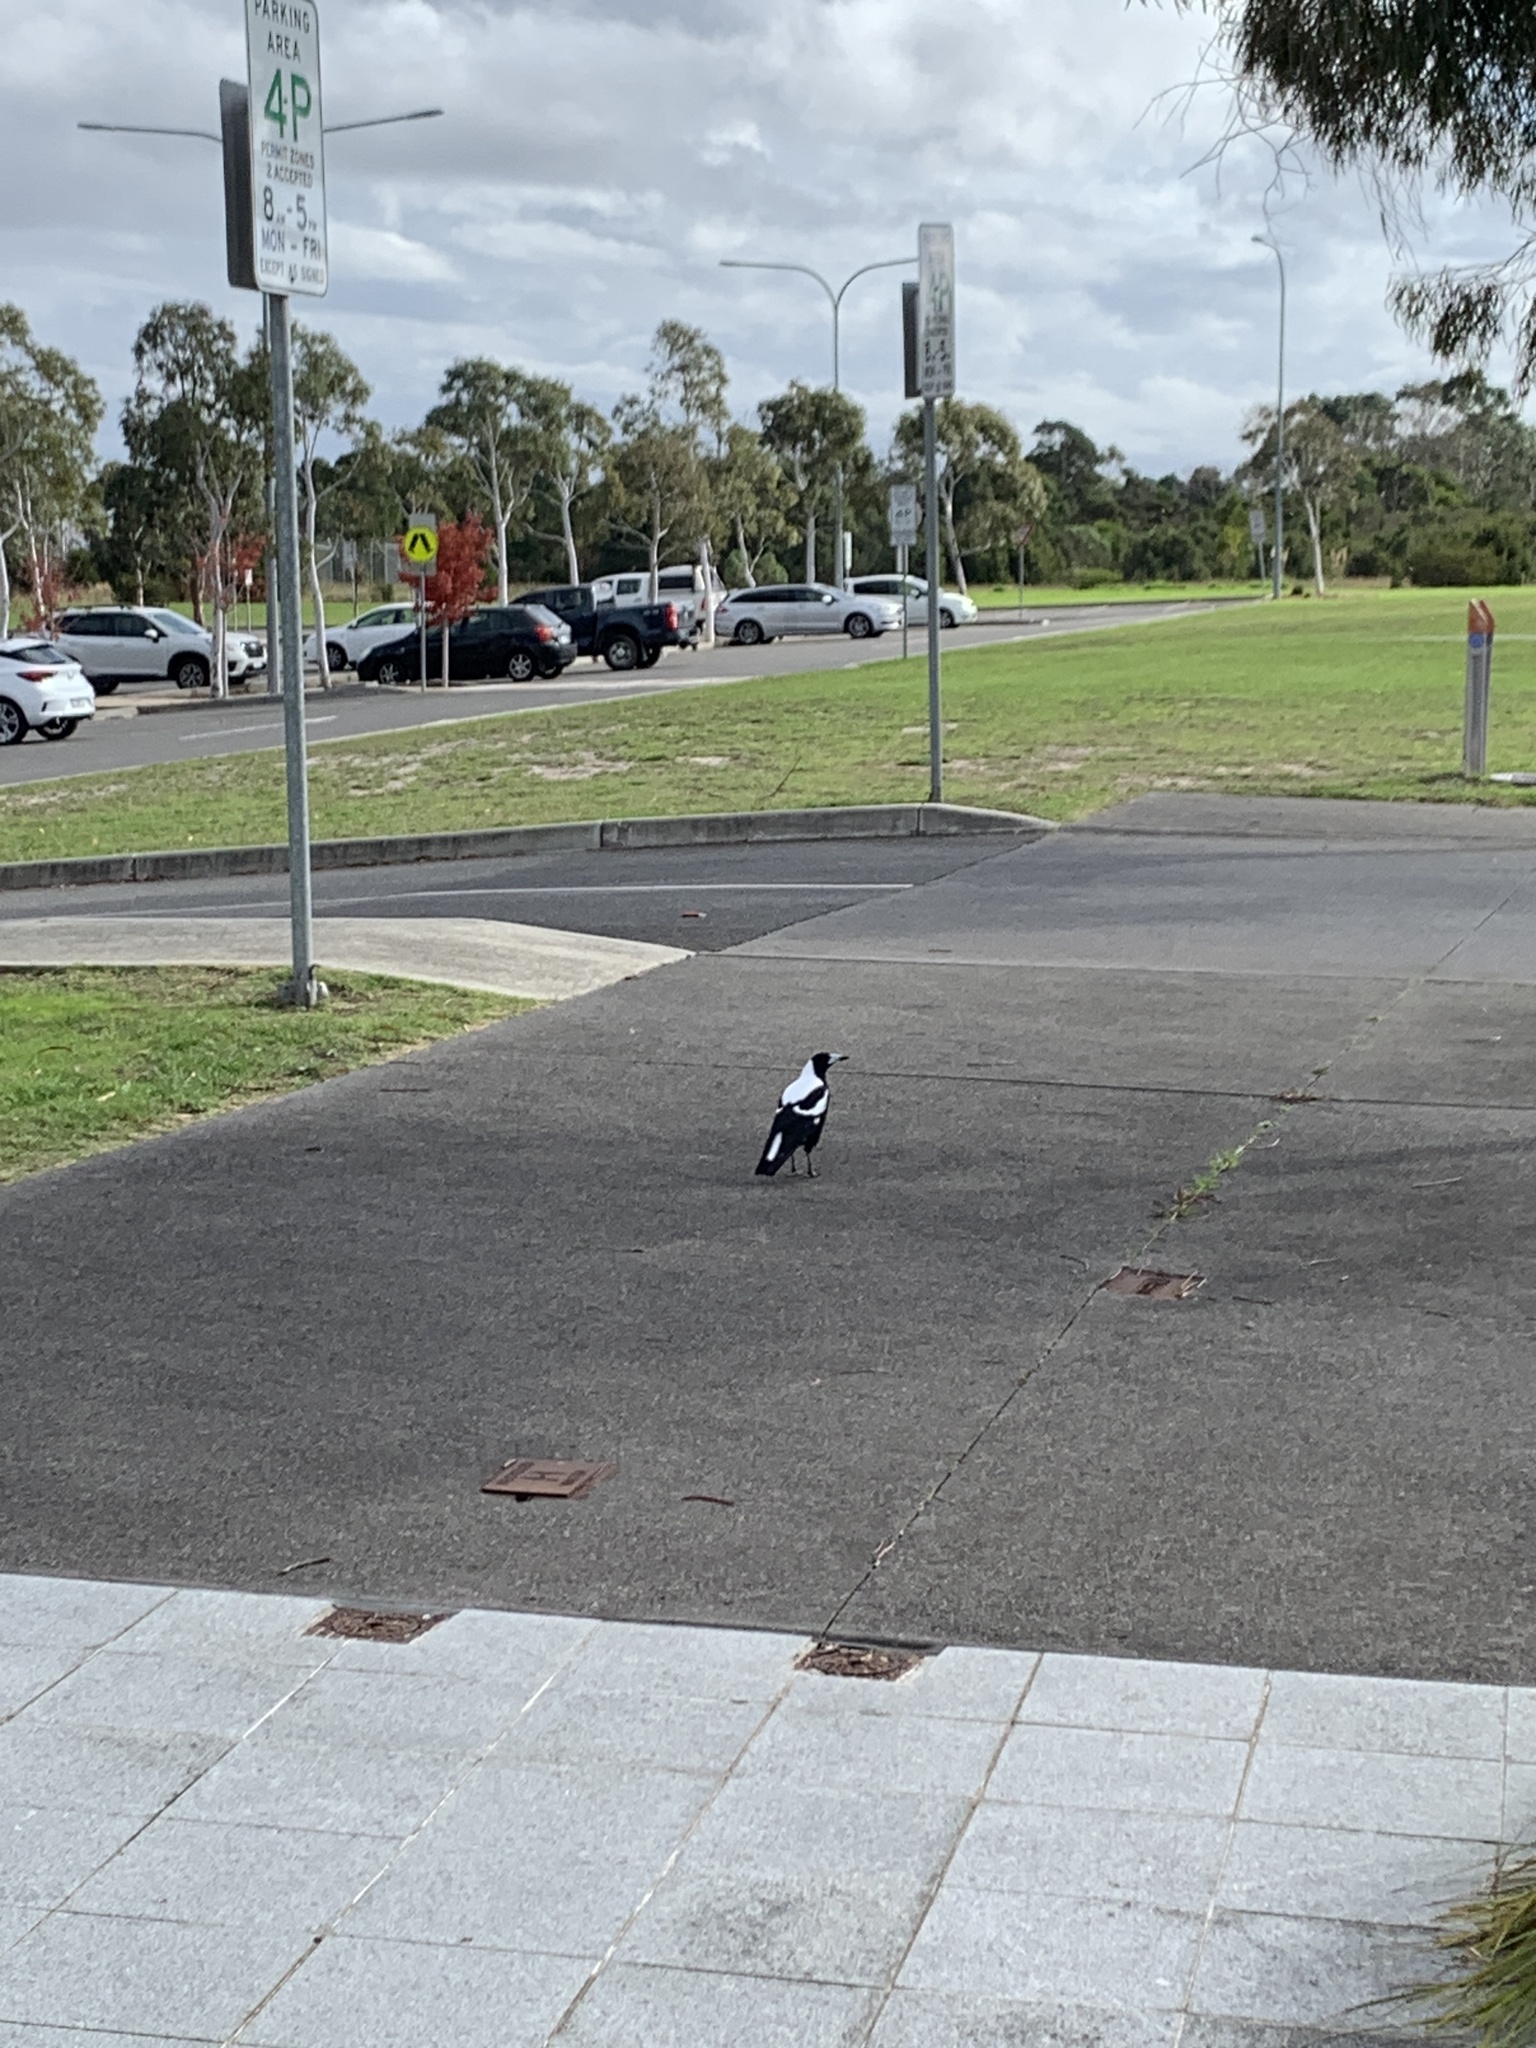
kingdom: Animalia
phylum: Chordata
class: Aves
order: Passeriformes
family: Cracticidae
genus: Gymnorhina
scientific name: Gymnorhina tibicen
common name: Australian magpie
